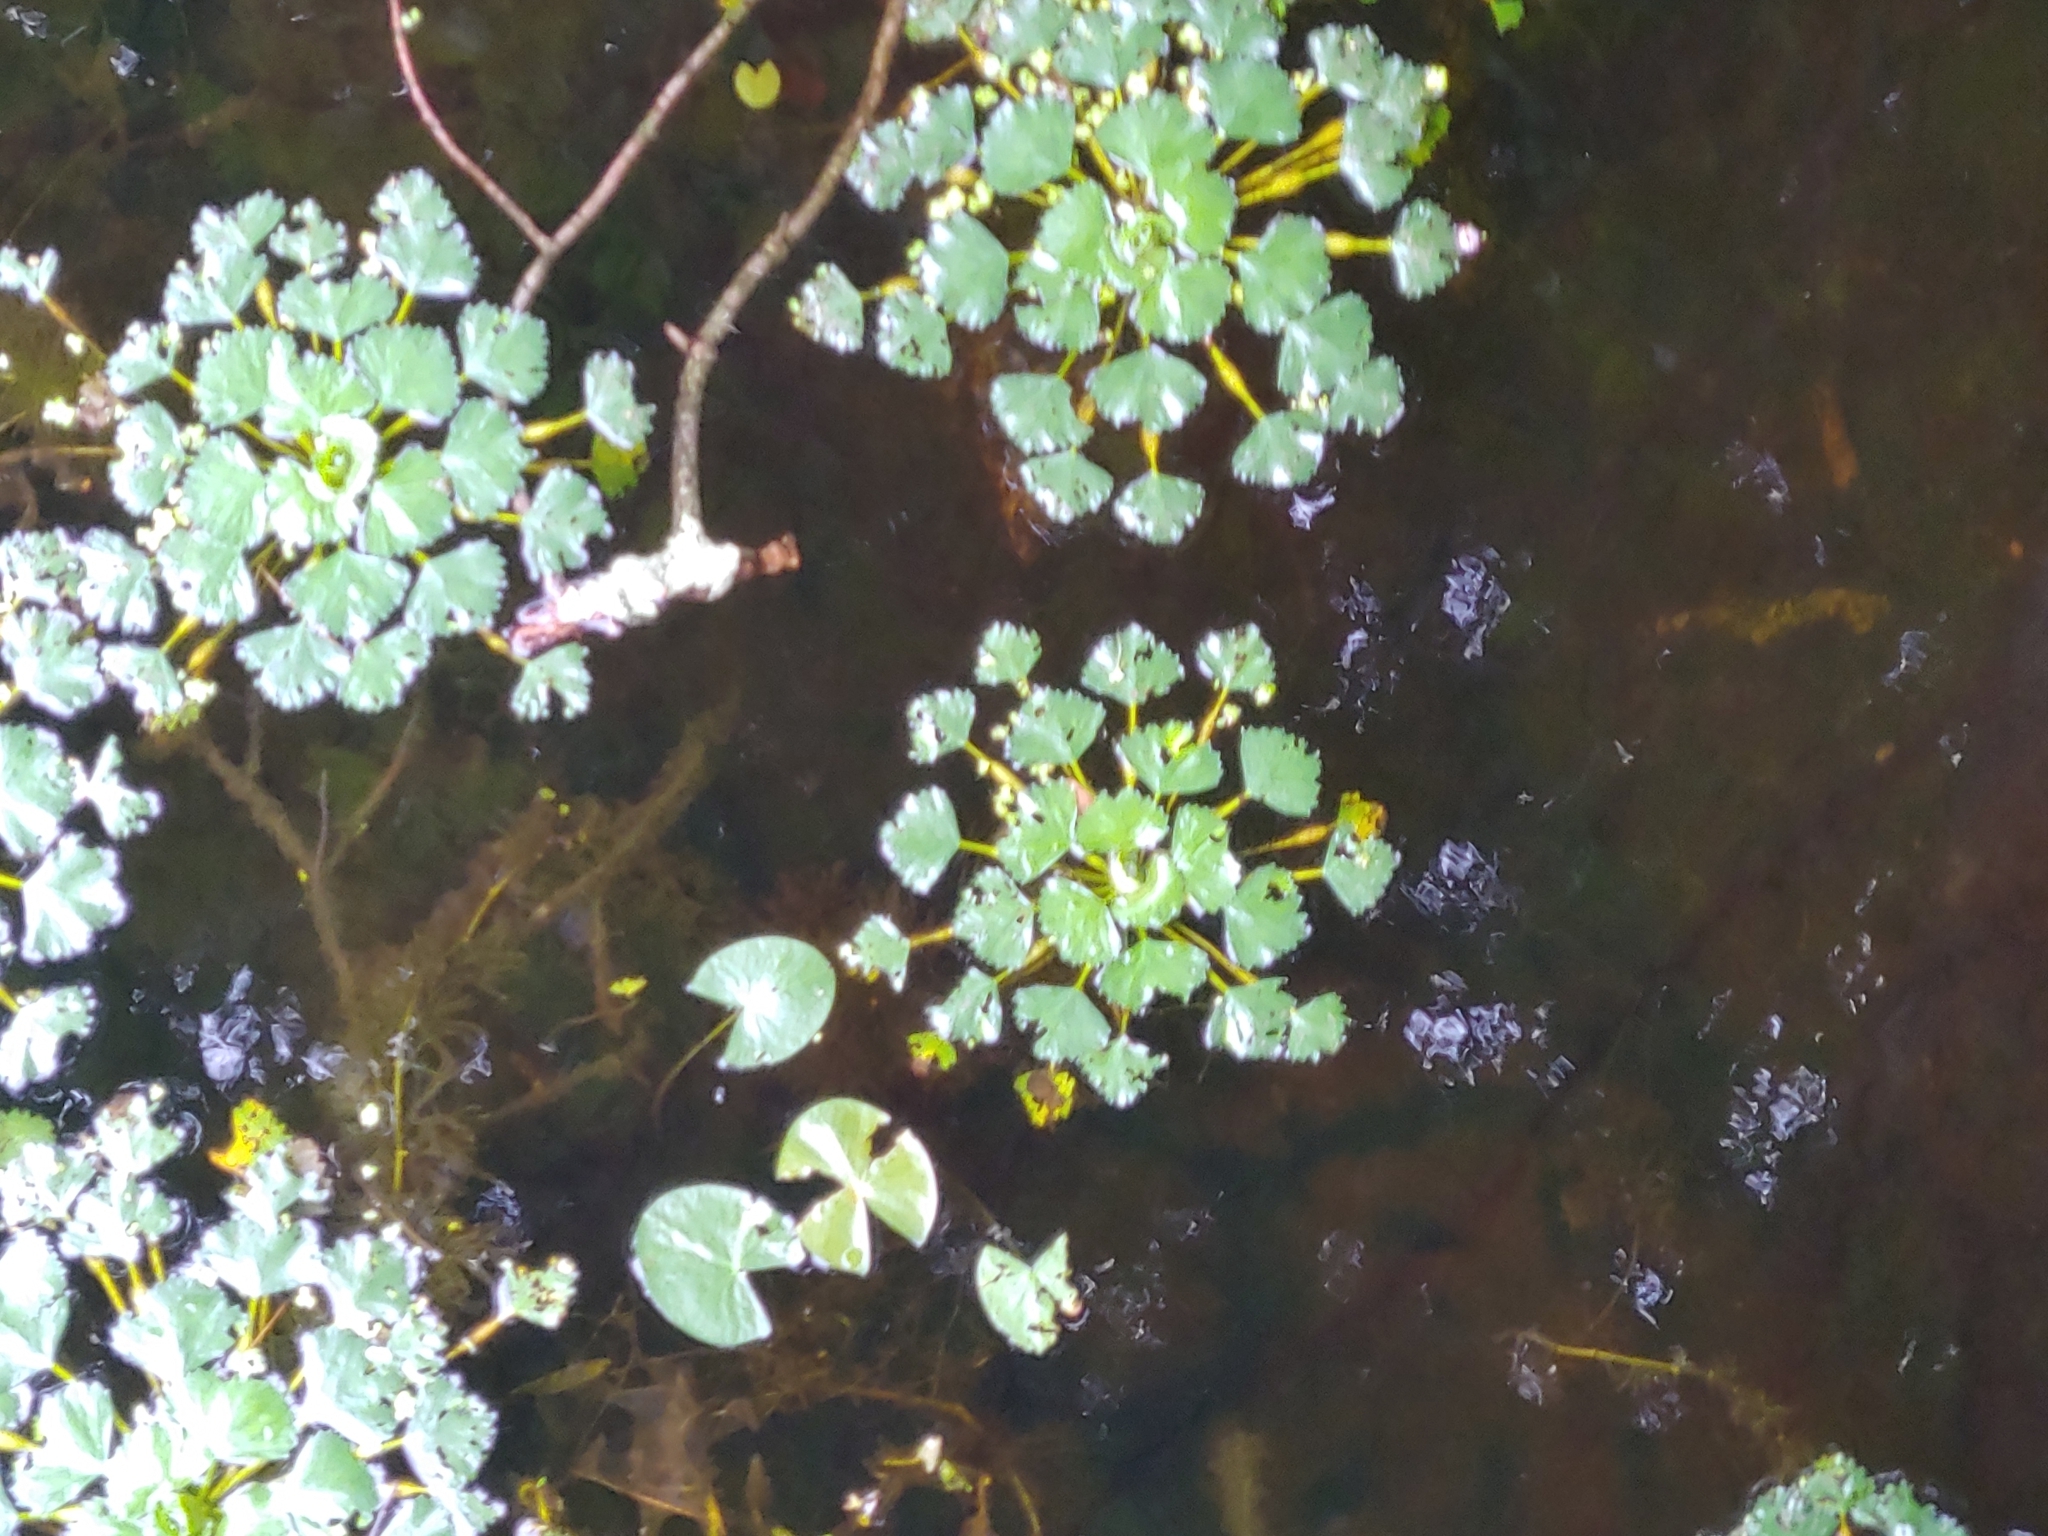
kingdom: Plantae
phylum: Tracheophyta
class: Magnoliopsida
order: Myrtales
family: Lythraceae
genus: Trapa
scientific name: Trapa natans
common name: Water chestnut
